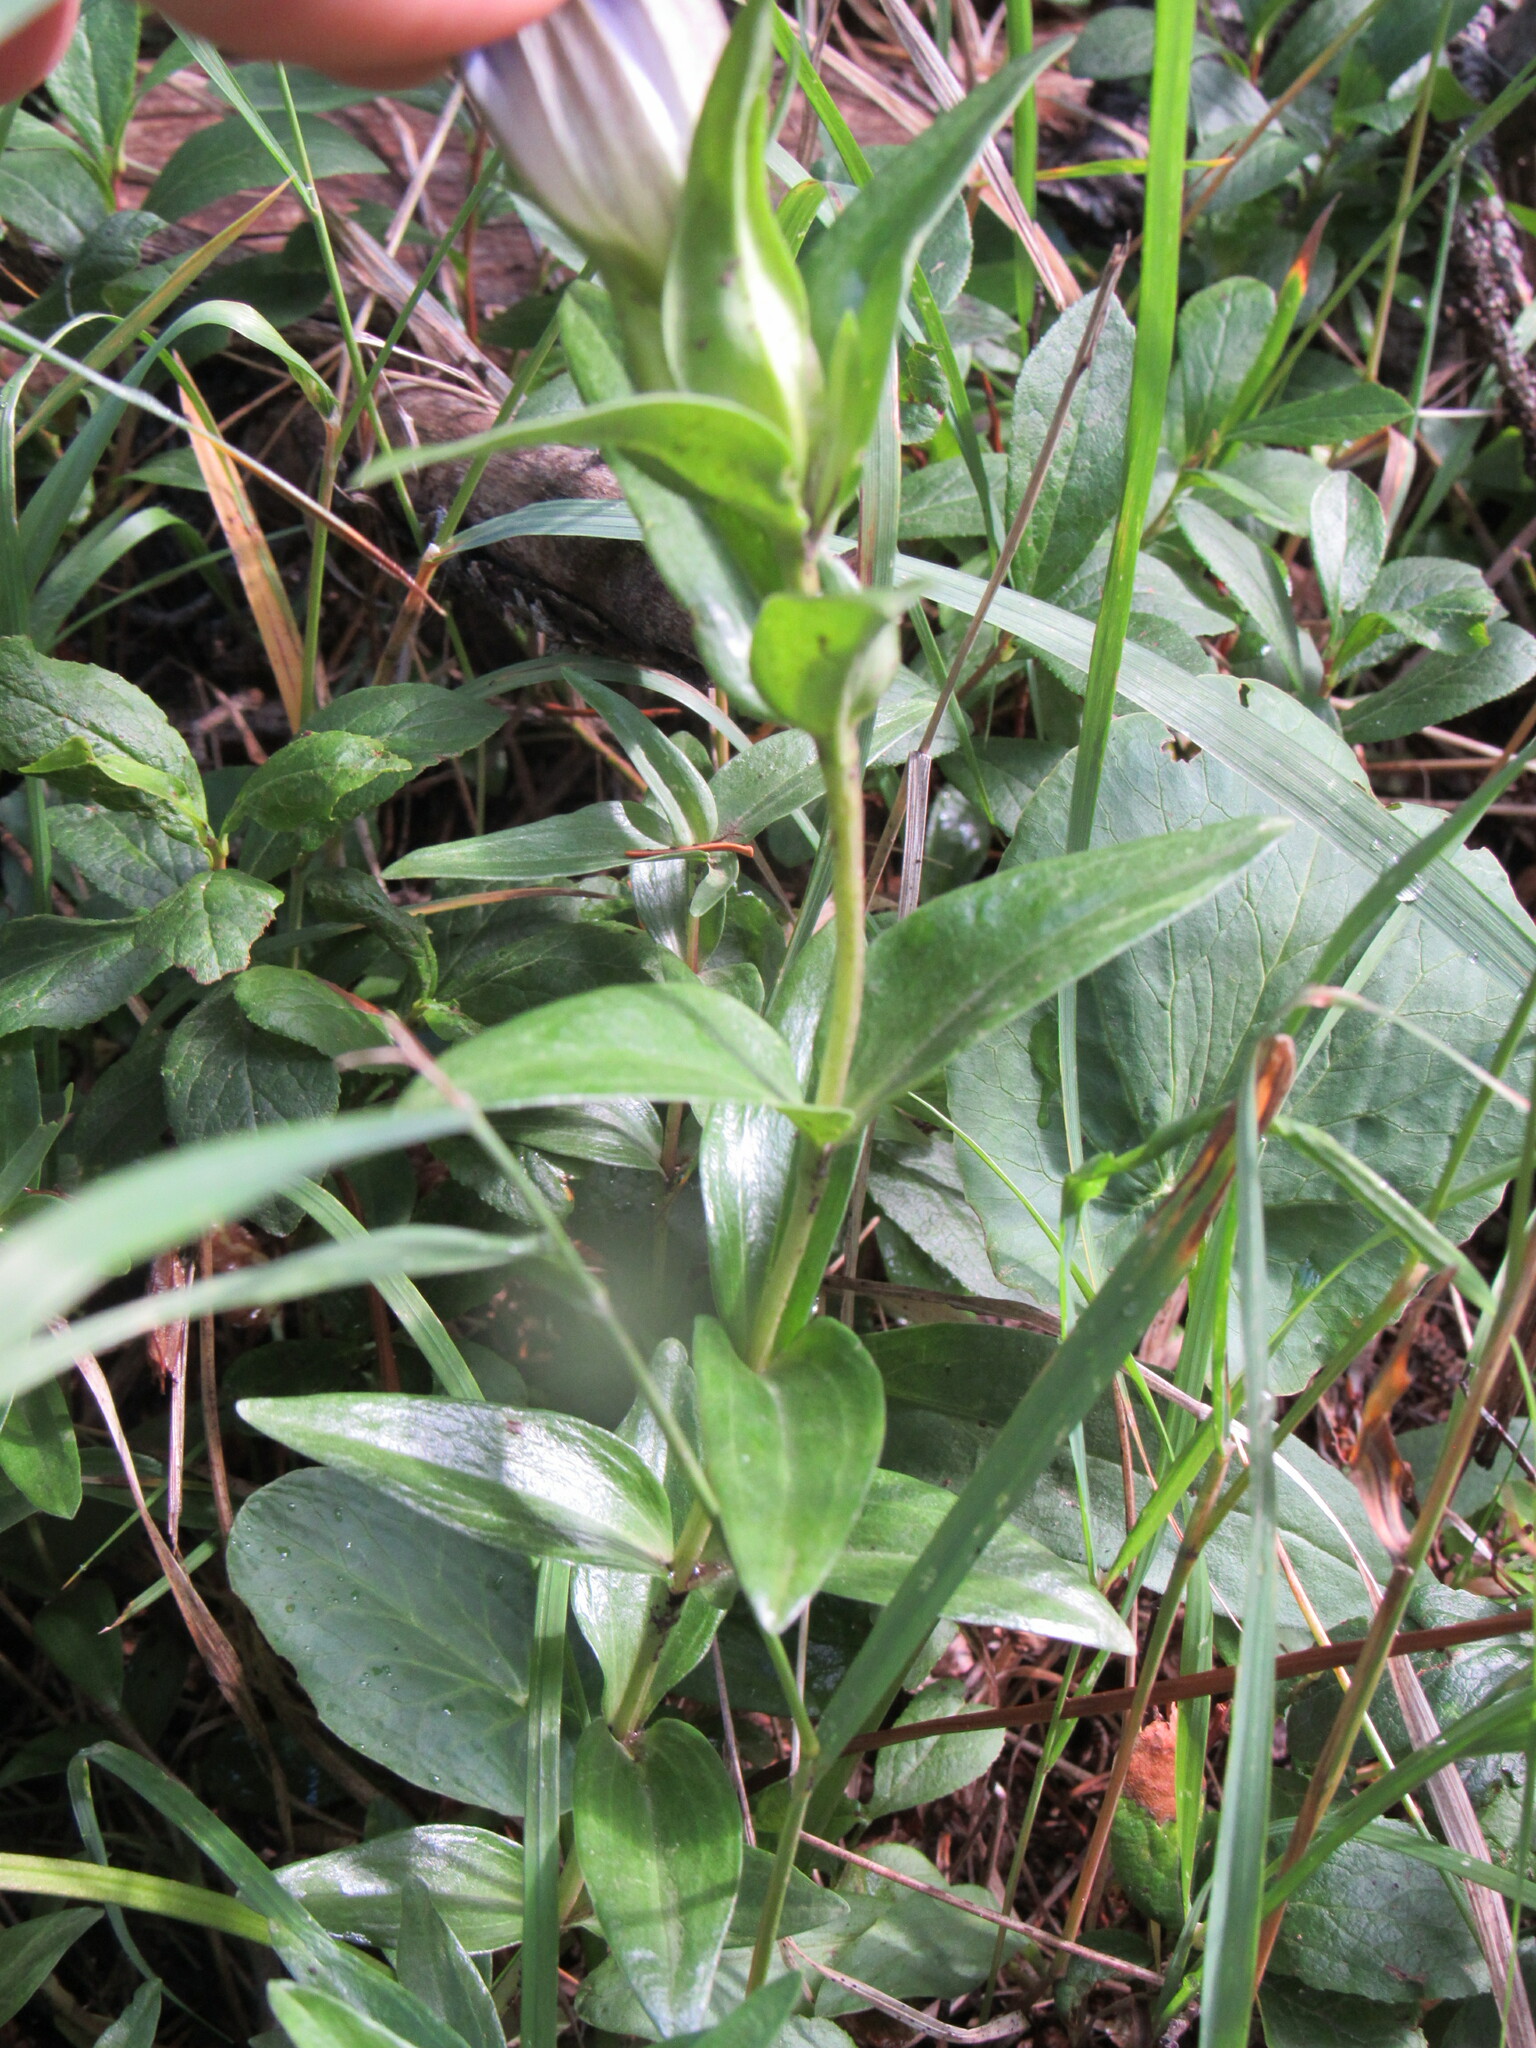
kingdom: Plantae
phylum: Tracheophyta
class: Magnoliopsida
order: Gentianales
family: Gentianaceae
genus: Gentiana
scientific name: Gentiana parryi
